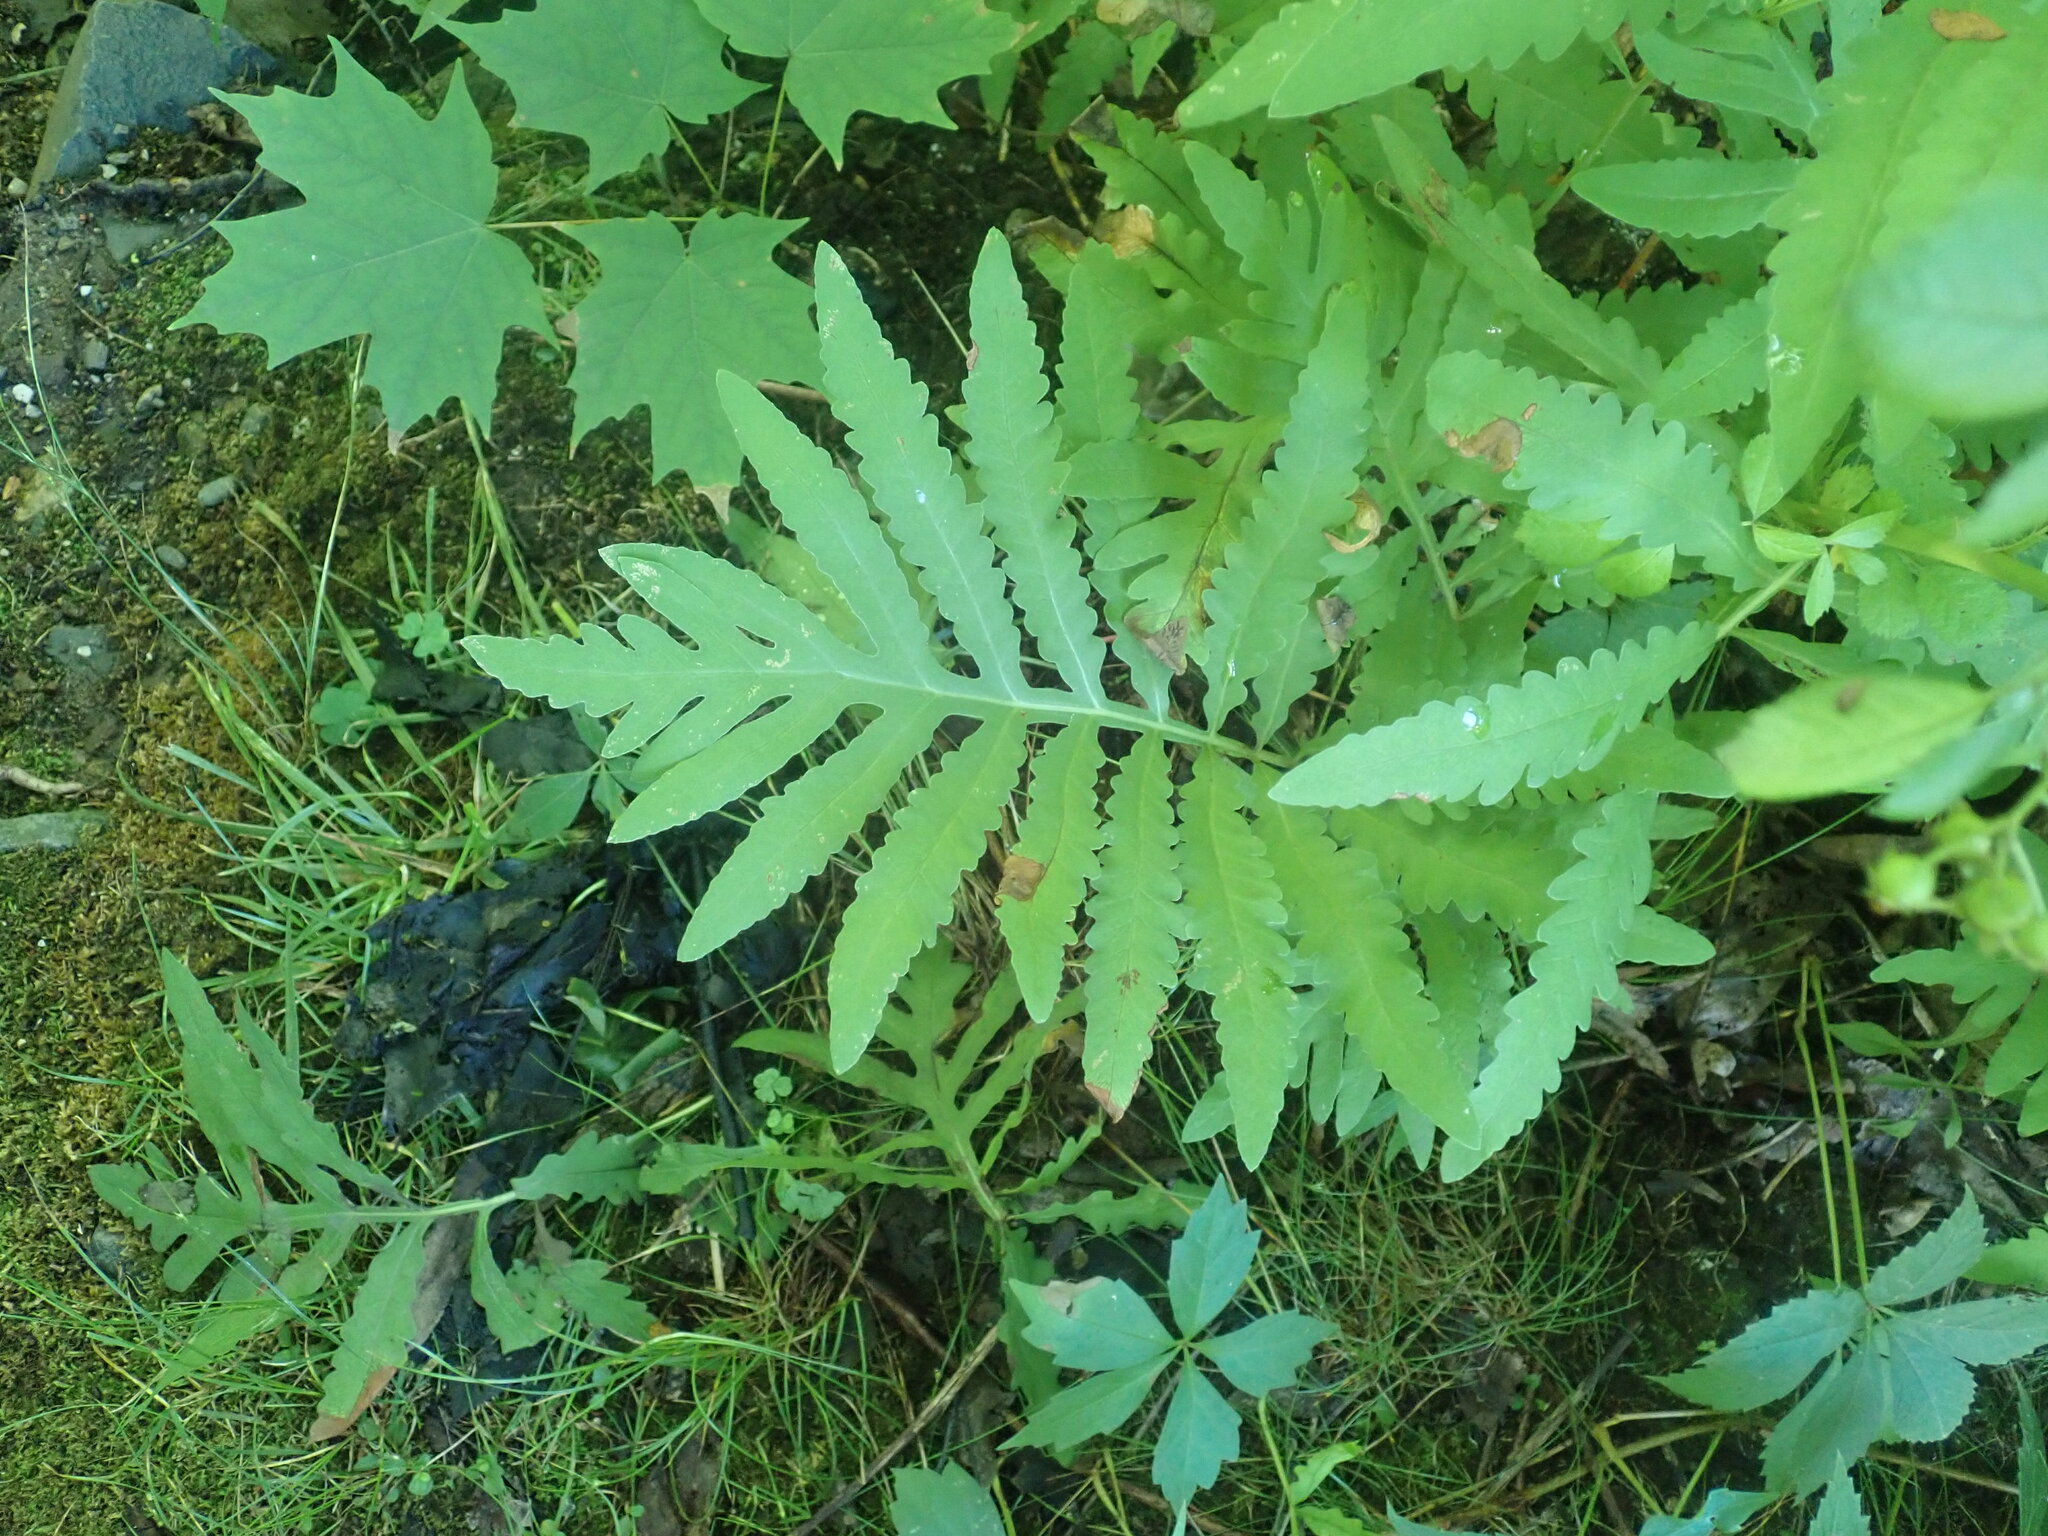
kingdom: Plantae
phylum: Tracheophyta
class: Polypodiopsida
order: Polypodiales
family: Onocleaceae
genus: Onoclea
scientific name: Onoclea sensibilis
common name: Sensitive fern
